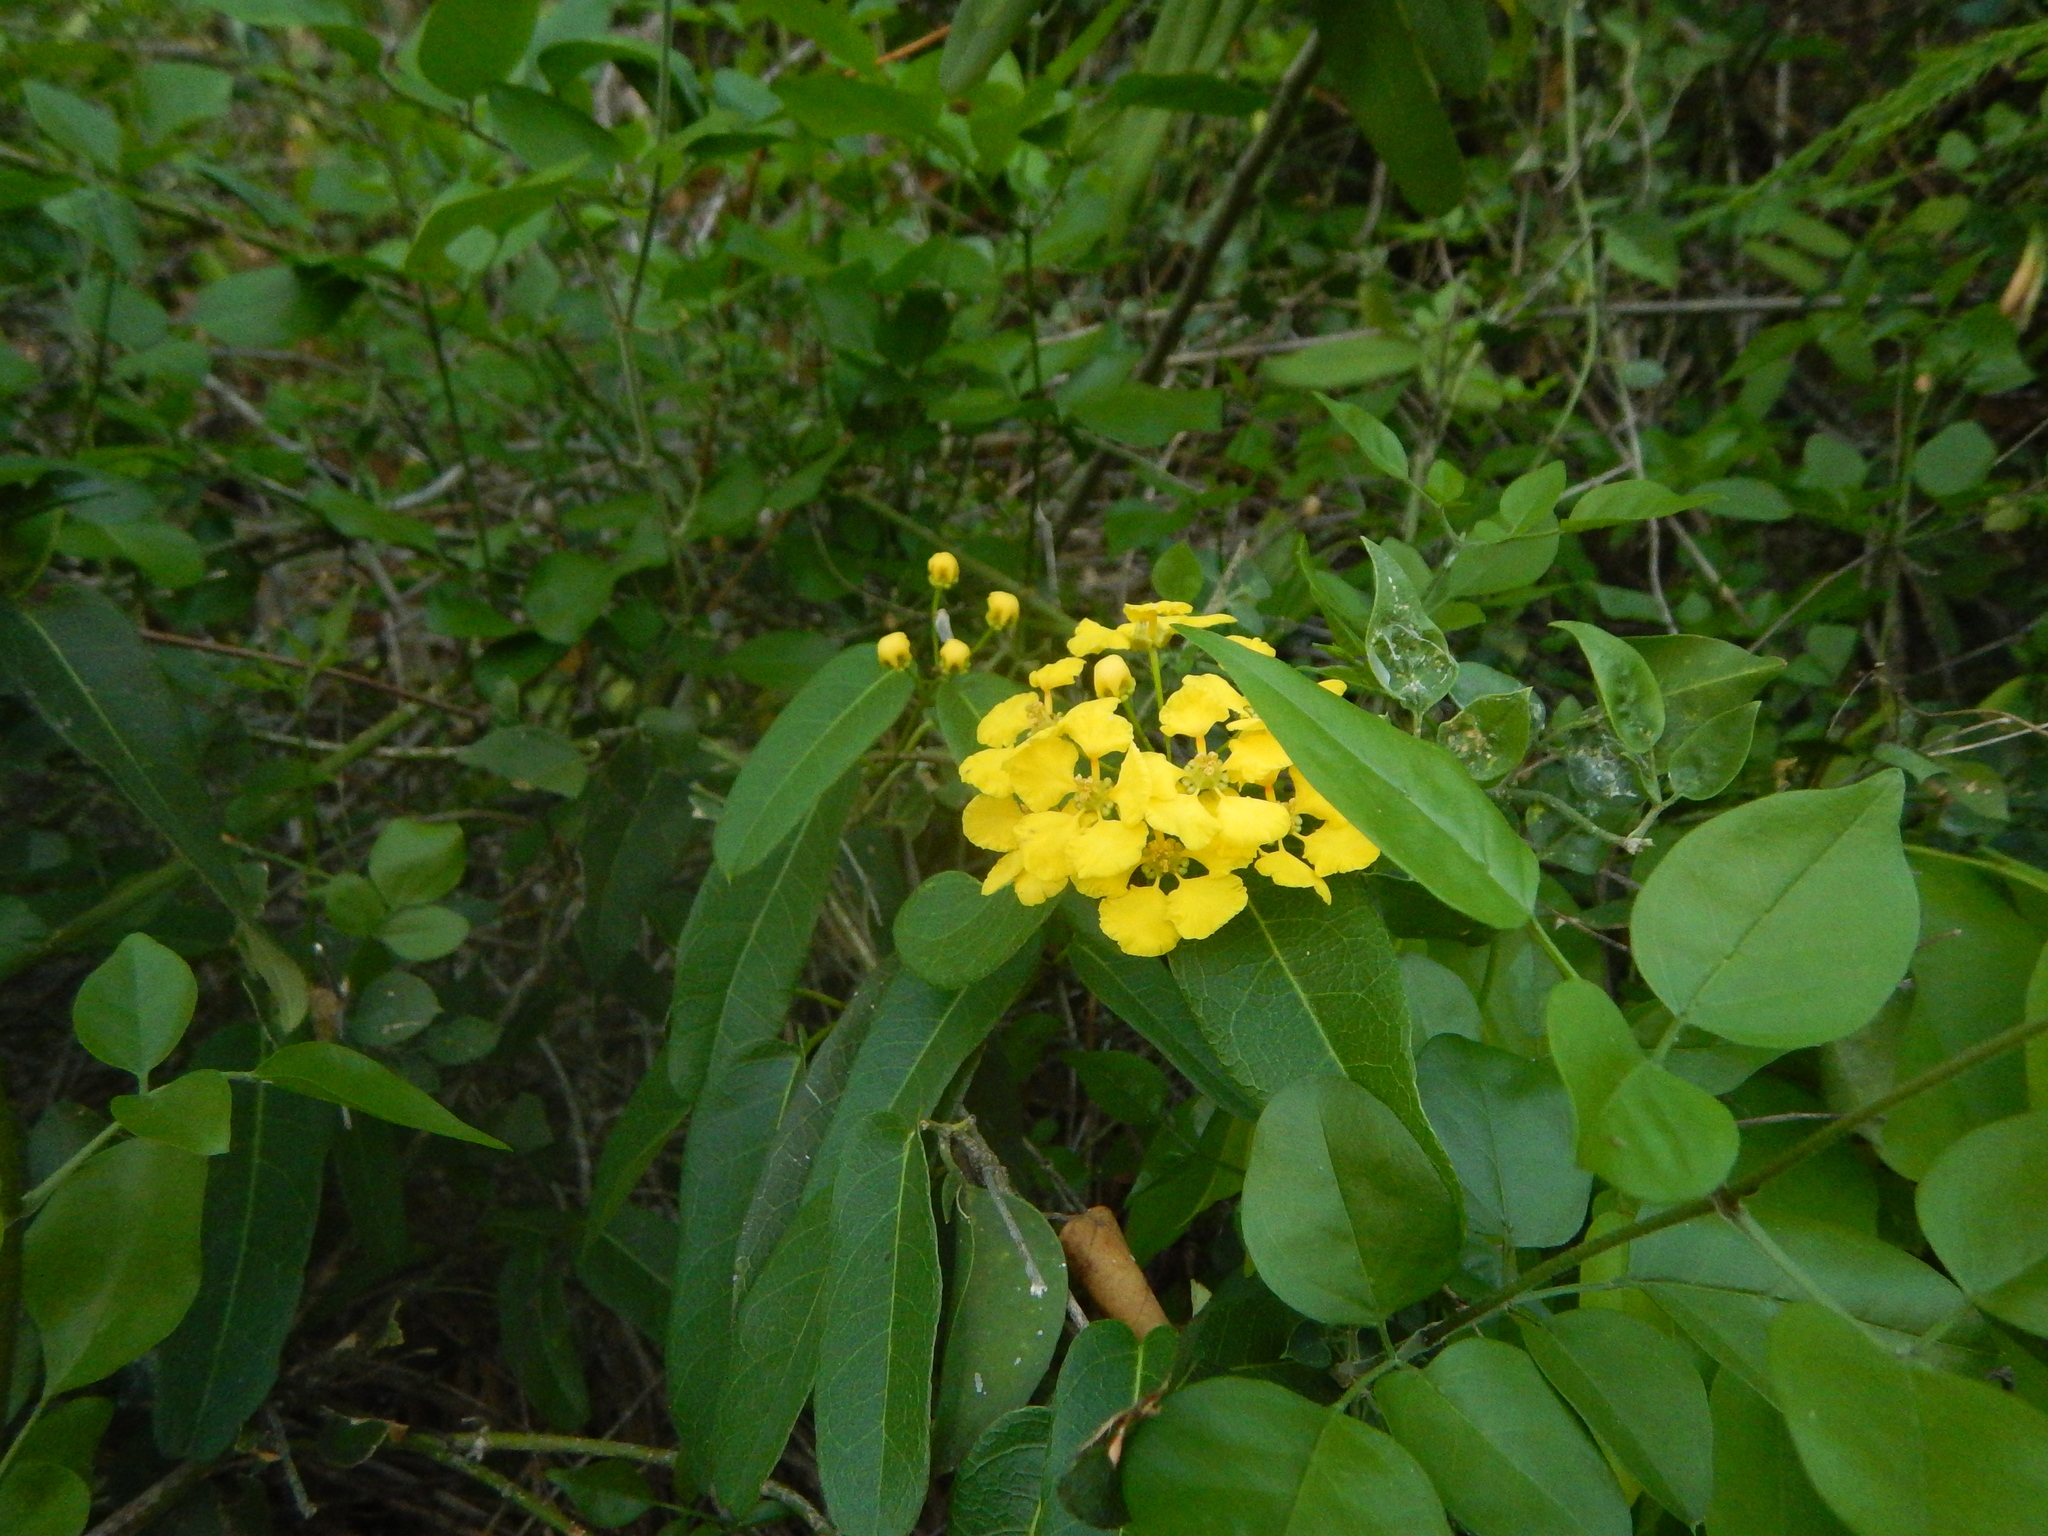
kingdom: Plantae
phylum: Tracheophyta
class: Magnoliopsida
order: Malpighiales
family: Malpighiaceae
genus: Stigmaphyllon
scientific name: Stigmaphyllon emarginatum
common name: Monarch amazonvine
